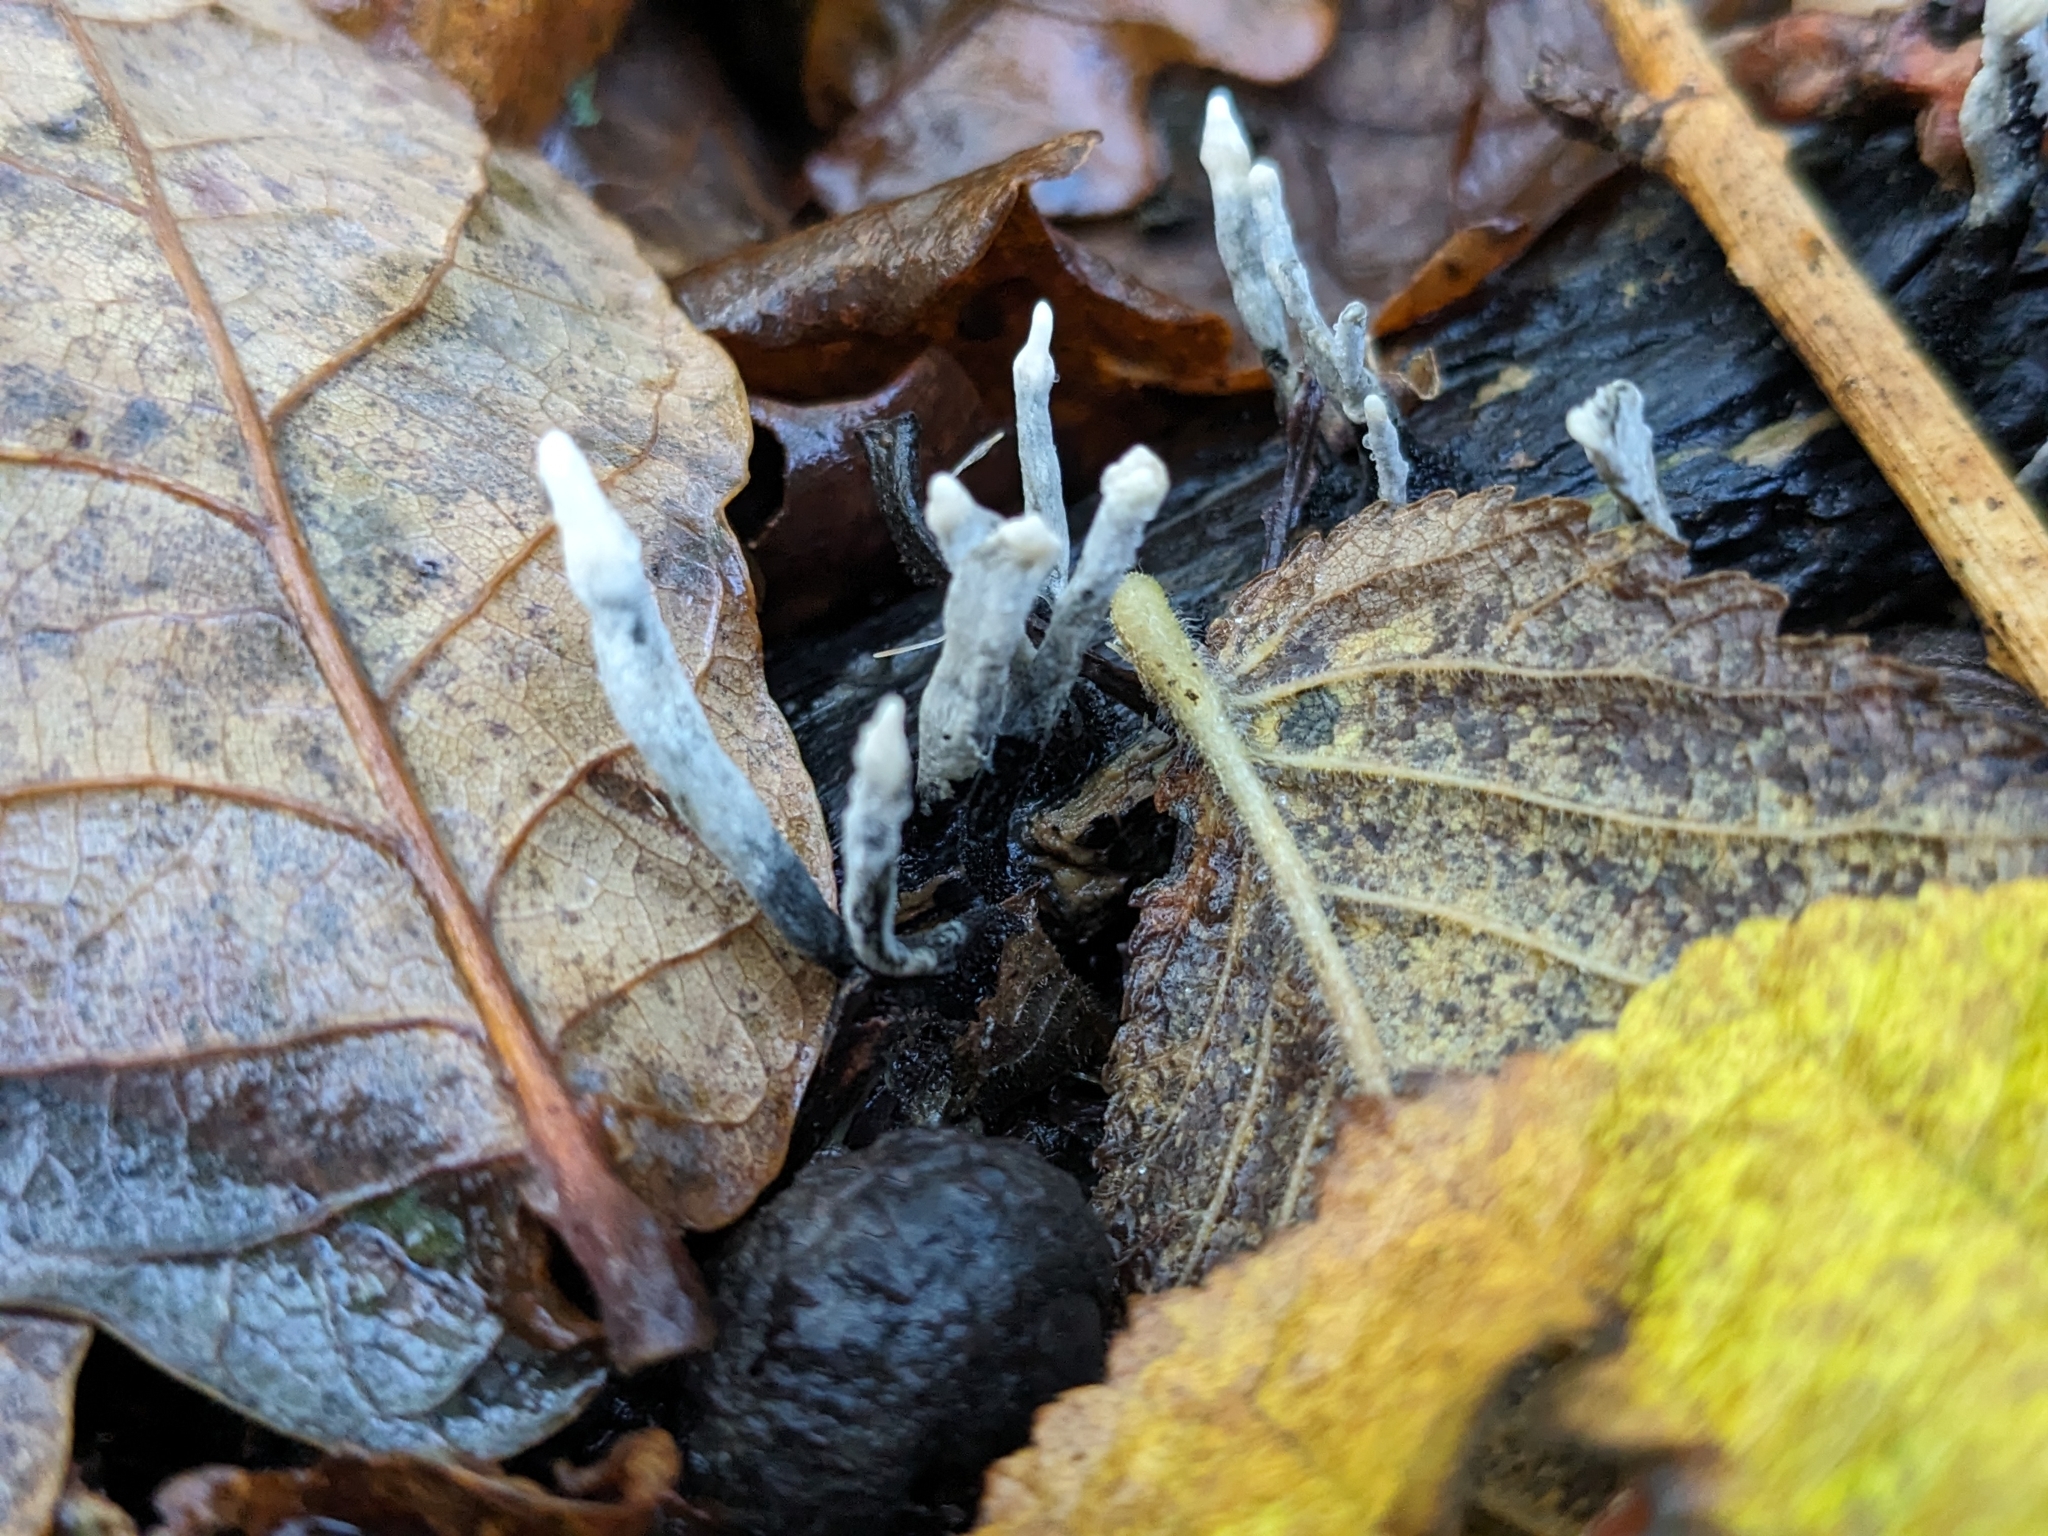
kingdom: Fungi
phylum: Ascomycota
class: Sordariomycetes
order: Xylariales
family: Xylariaceae
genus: Xylaria
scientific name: Xylaria hypoxylon
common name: Candle-snuff fungus
